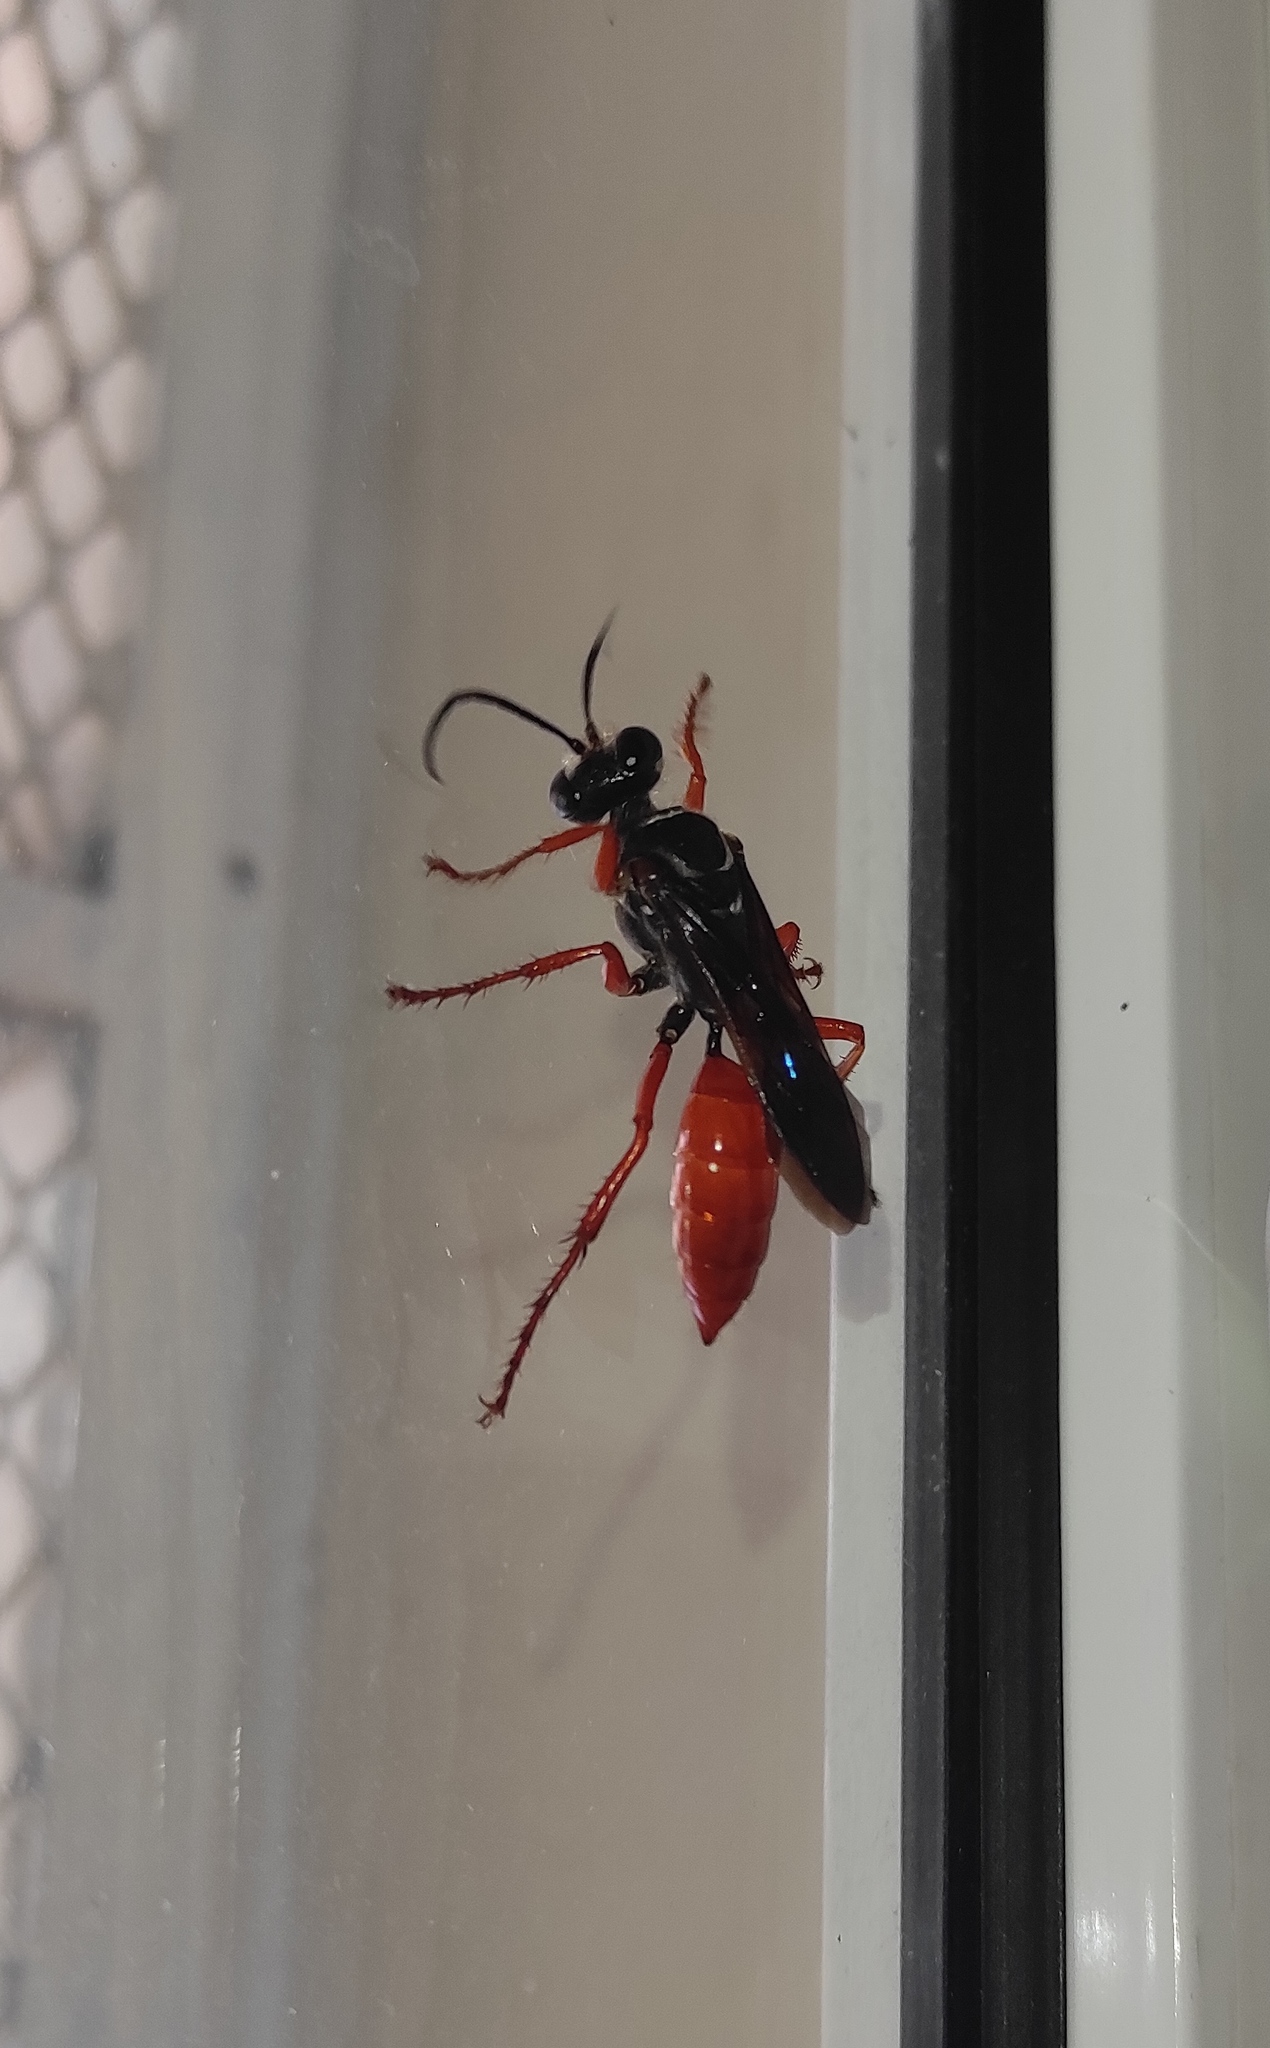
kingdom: Animalia
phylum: Arthropoda
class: Insecta
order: Hymenoptera
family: Sphecidae
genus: Sphex
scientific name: Sphex resinipes
